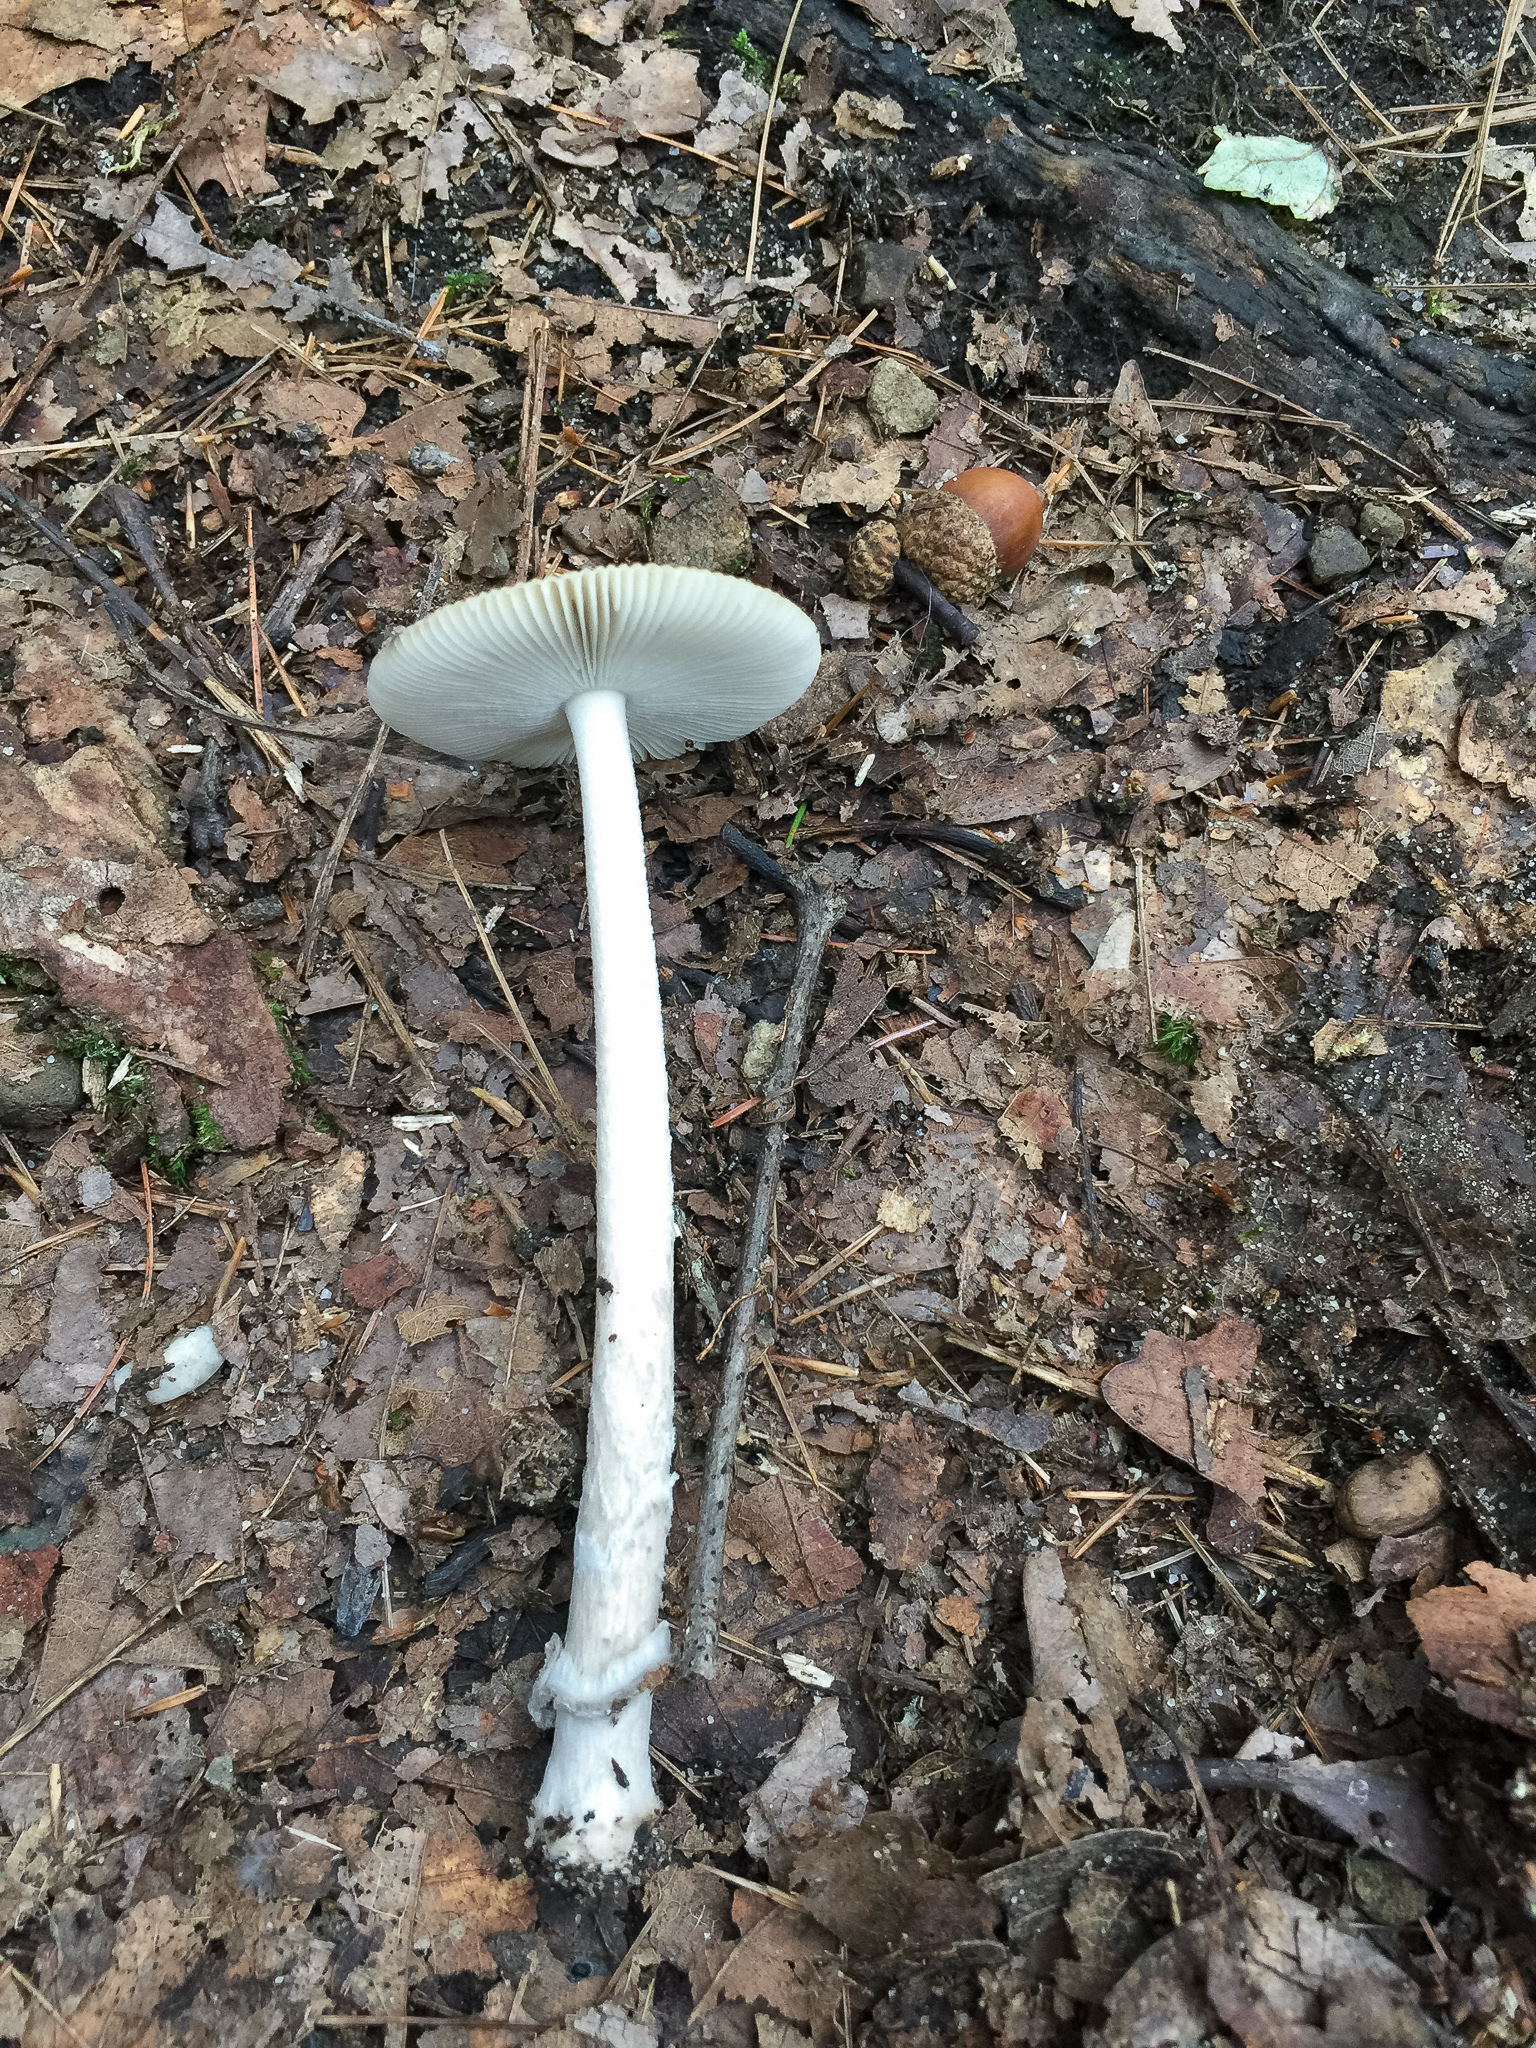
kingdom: Fungi
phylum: Basidiomycota
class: Agaricomycetes
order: Agaricales
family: Amanitaceae
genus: Amanita
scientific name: Amanita rhacopus
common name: Shaggy legged ringless amanita
